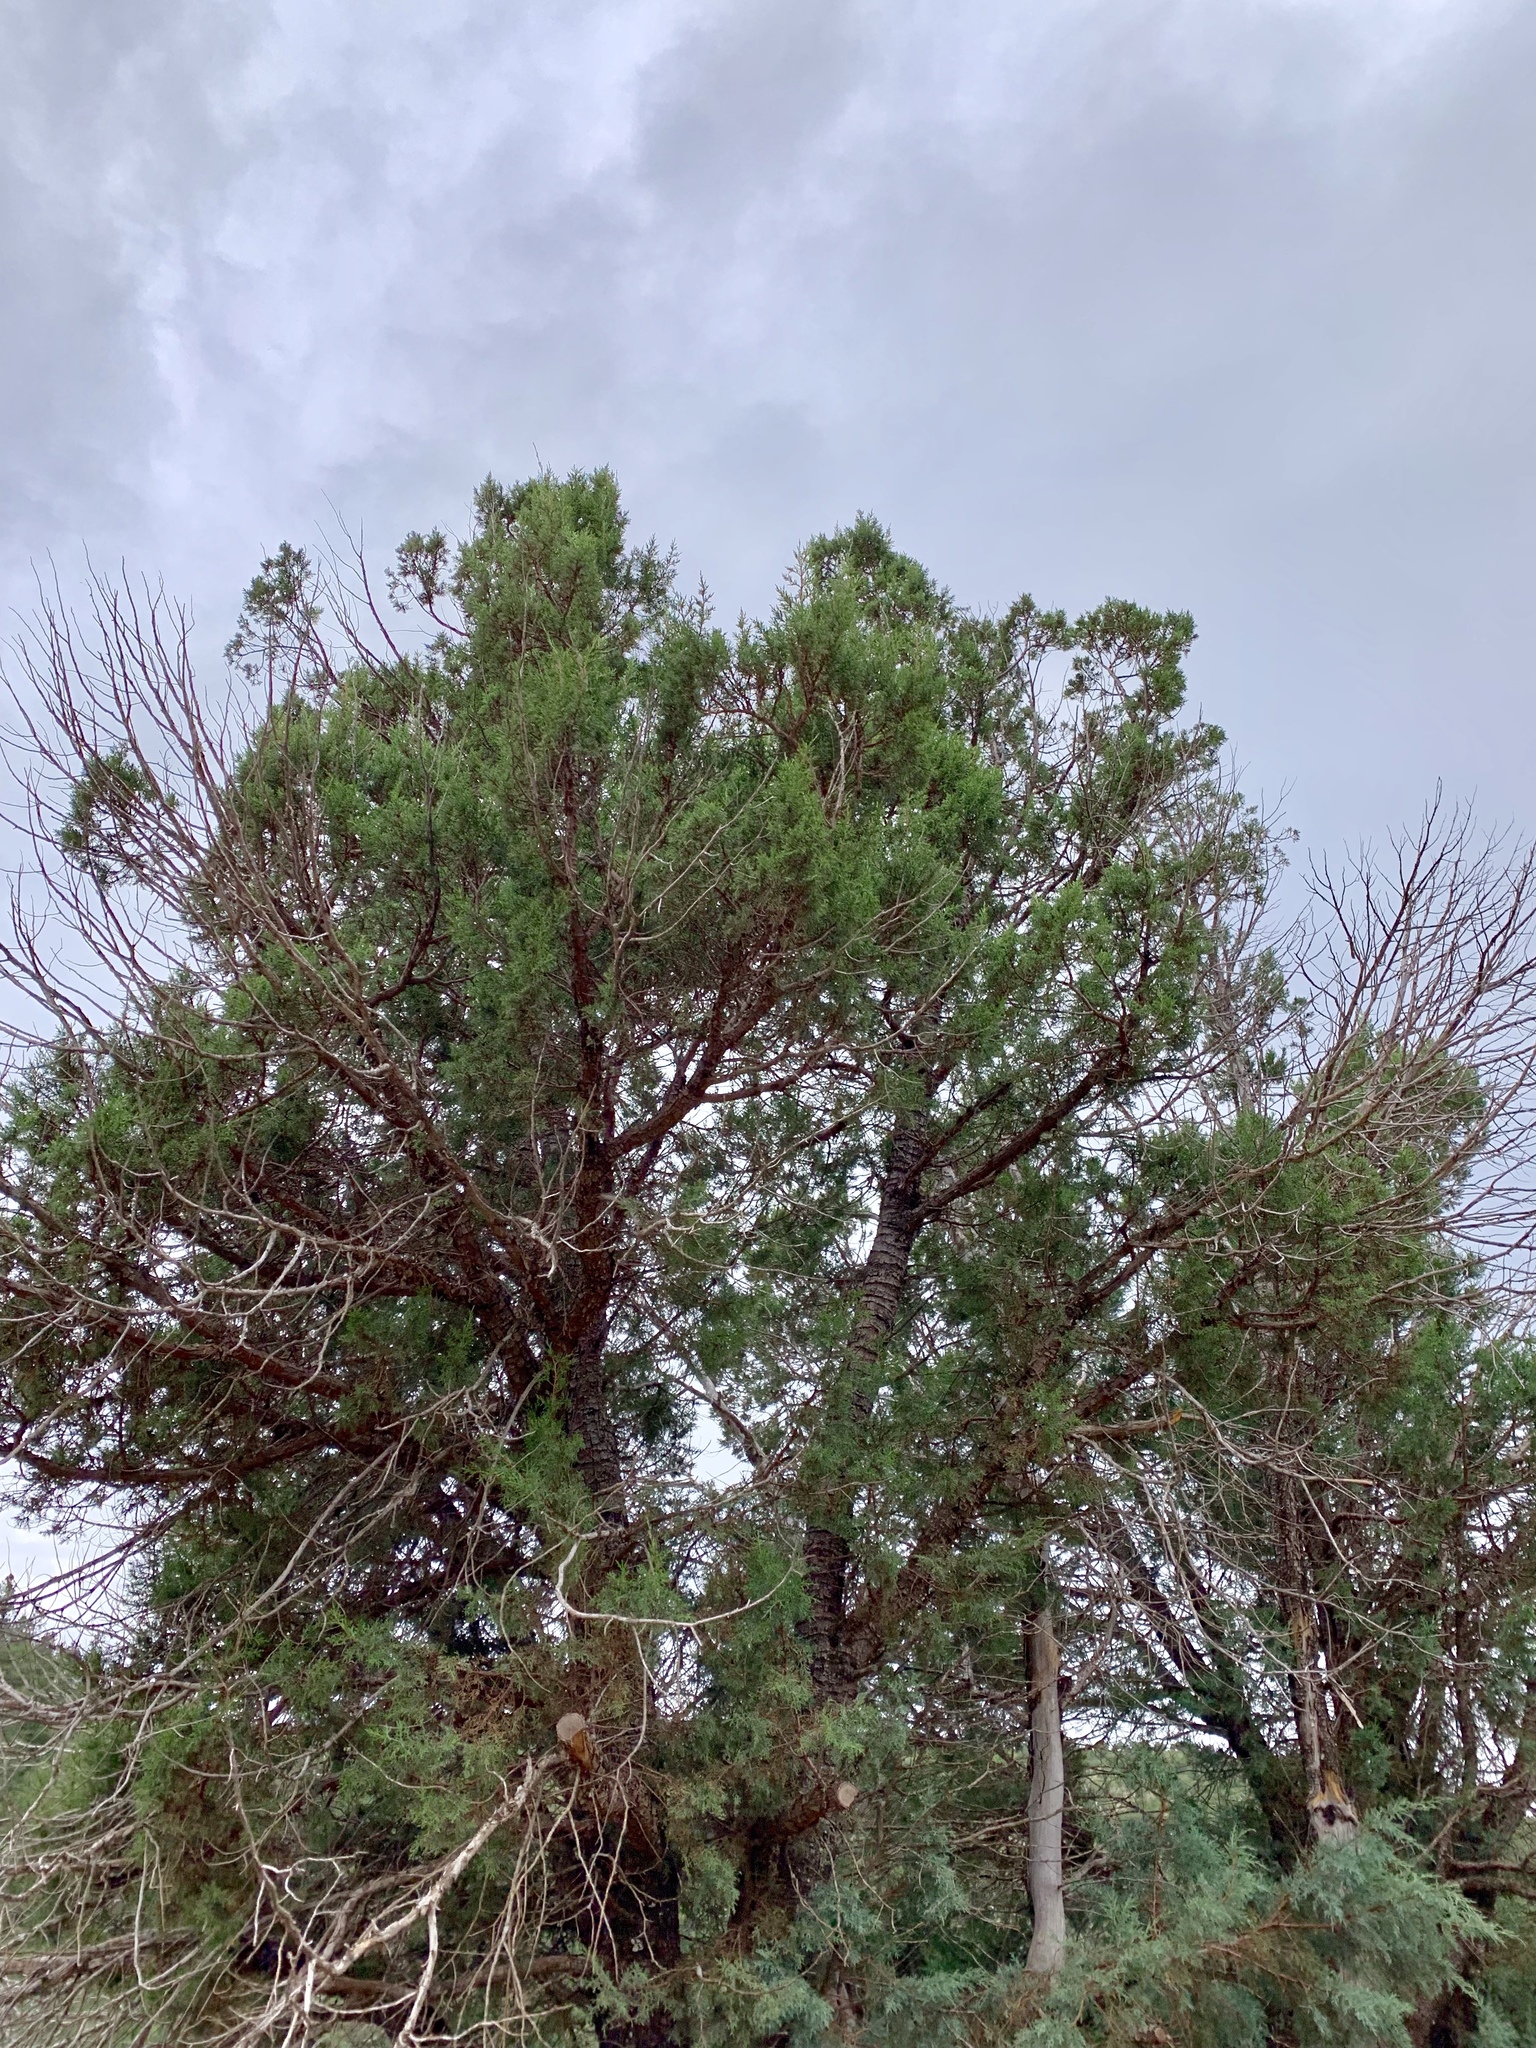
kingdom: Plantae
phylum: Tracheophyta
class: Pinopsida
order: Pinales
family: Cupressaceae
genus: Juniperus
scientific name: Juniperus deppeana
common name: Alligator juniper
